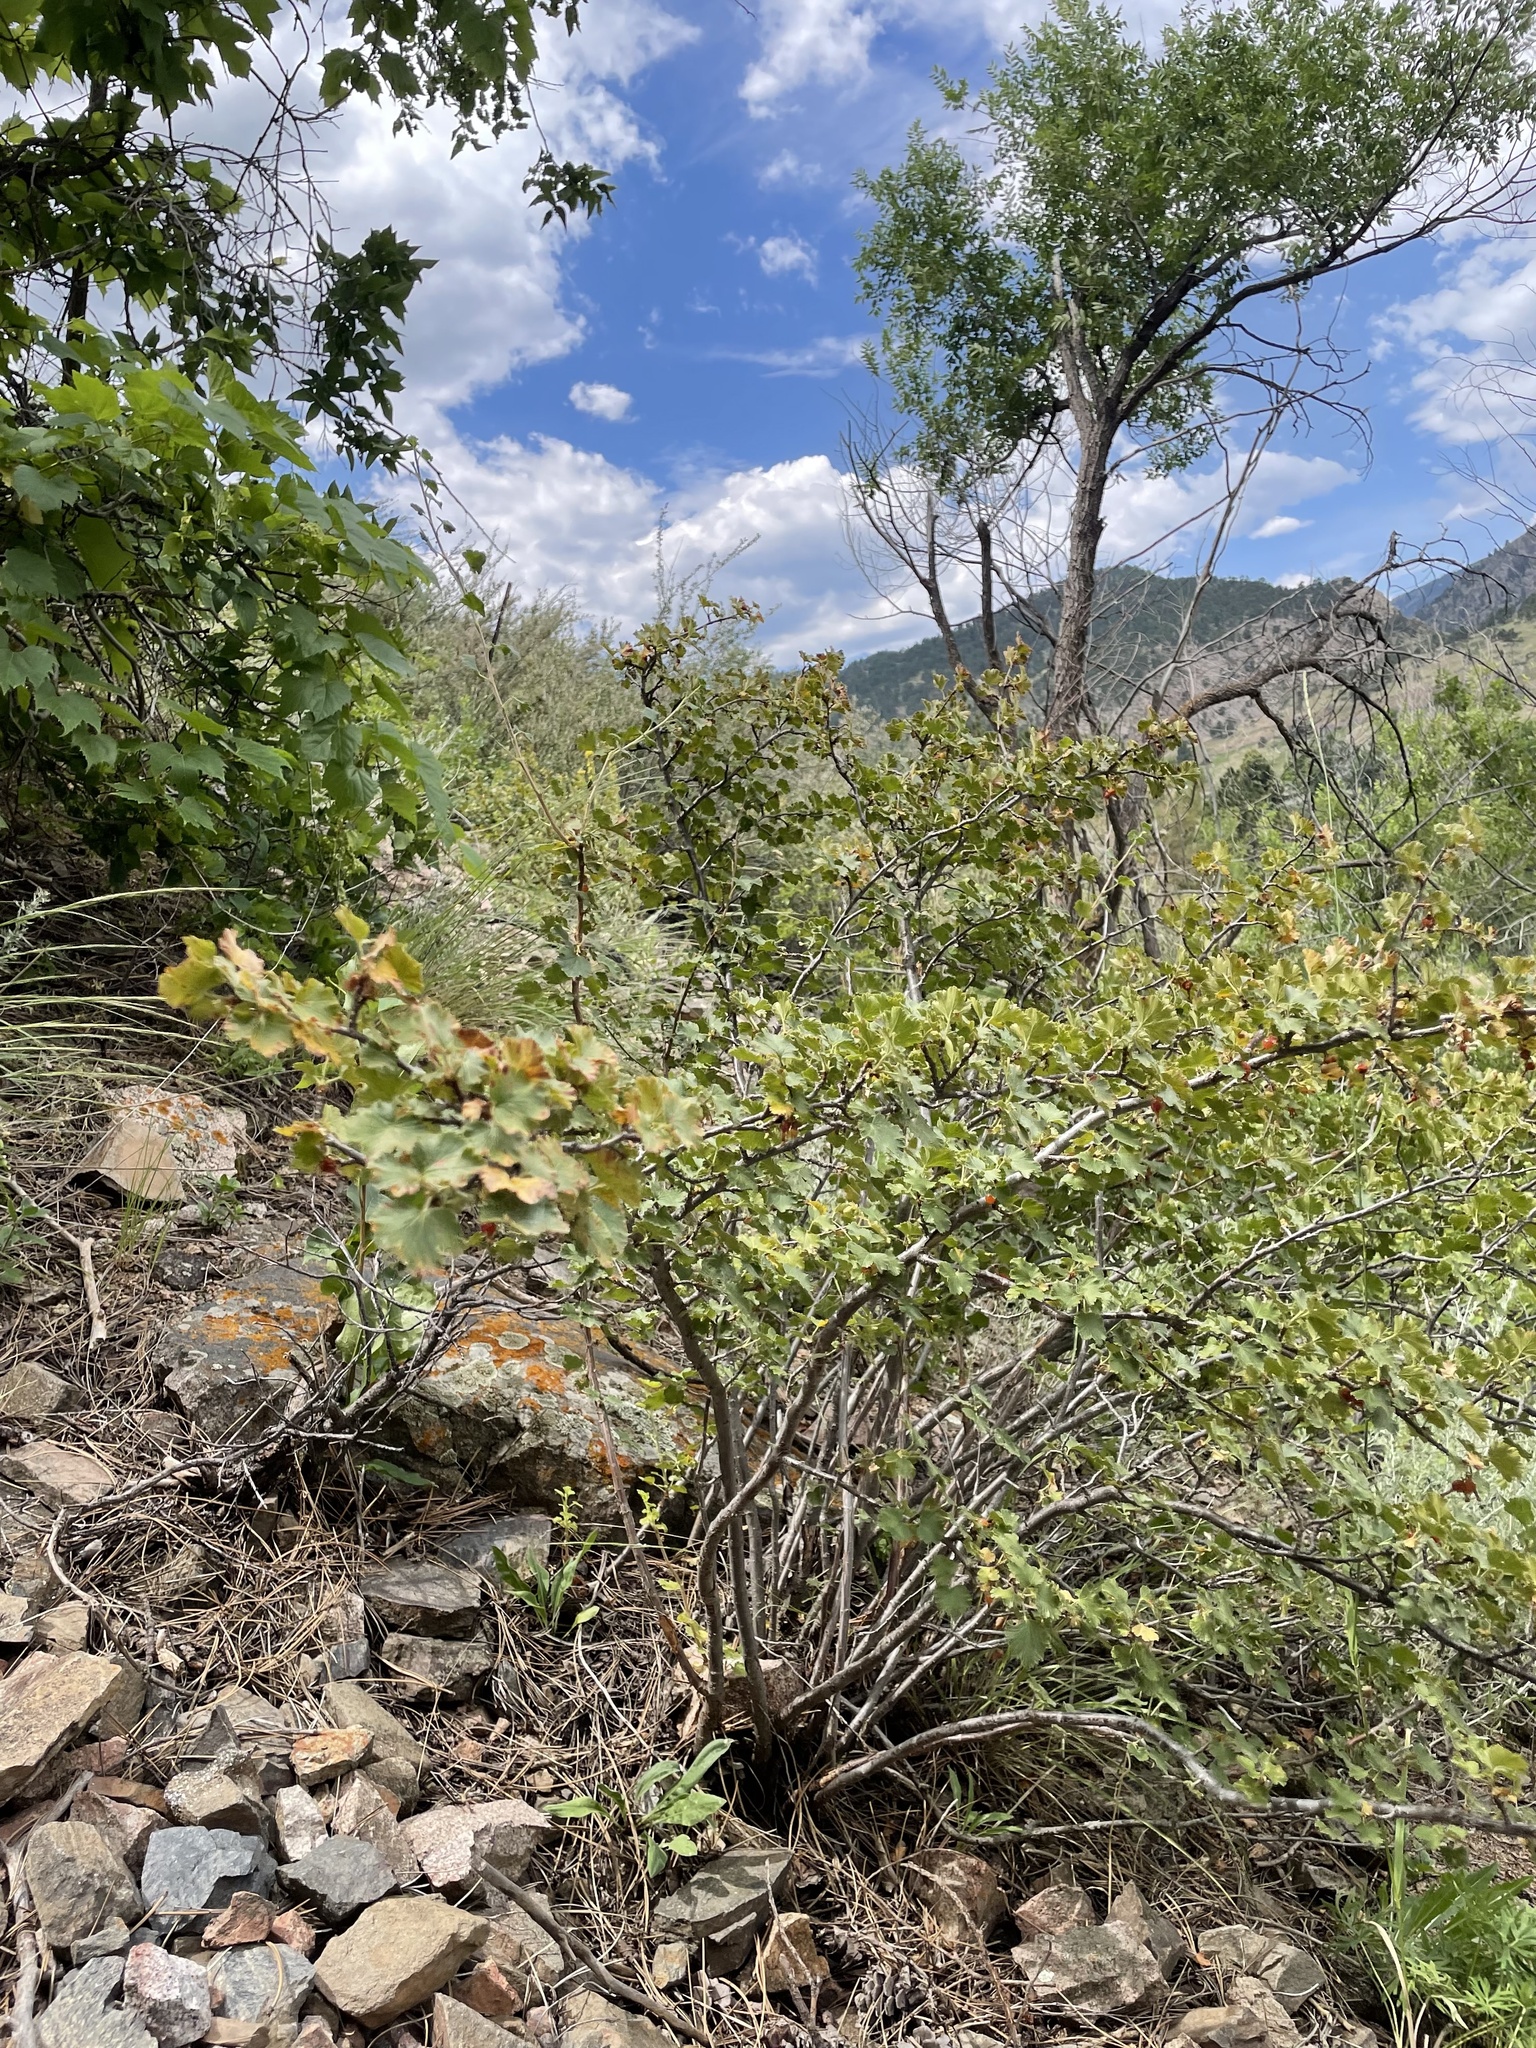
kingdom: Plantae
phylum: Tracheophyta
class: Magnoliopsida
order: Saxifragales
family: Grossulariaceae
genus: Ribes
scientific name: Ribes cereum
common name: Wax currant
